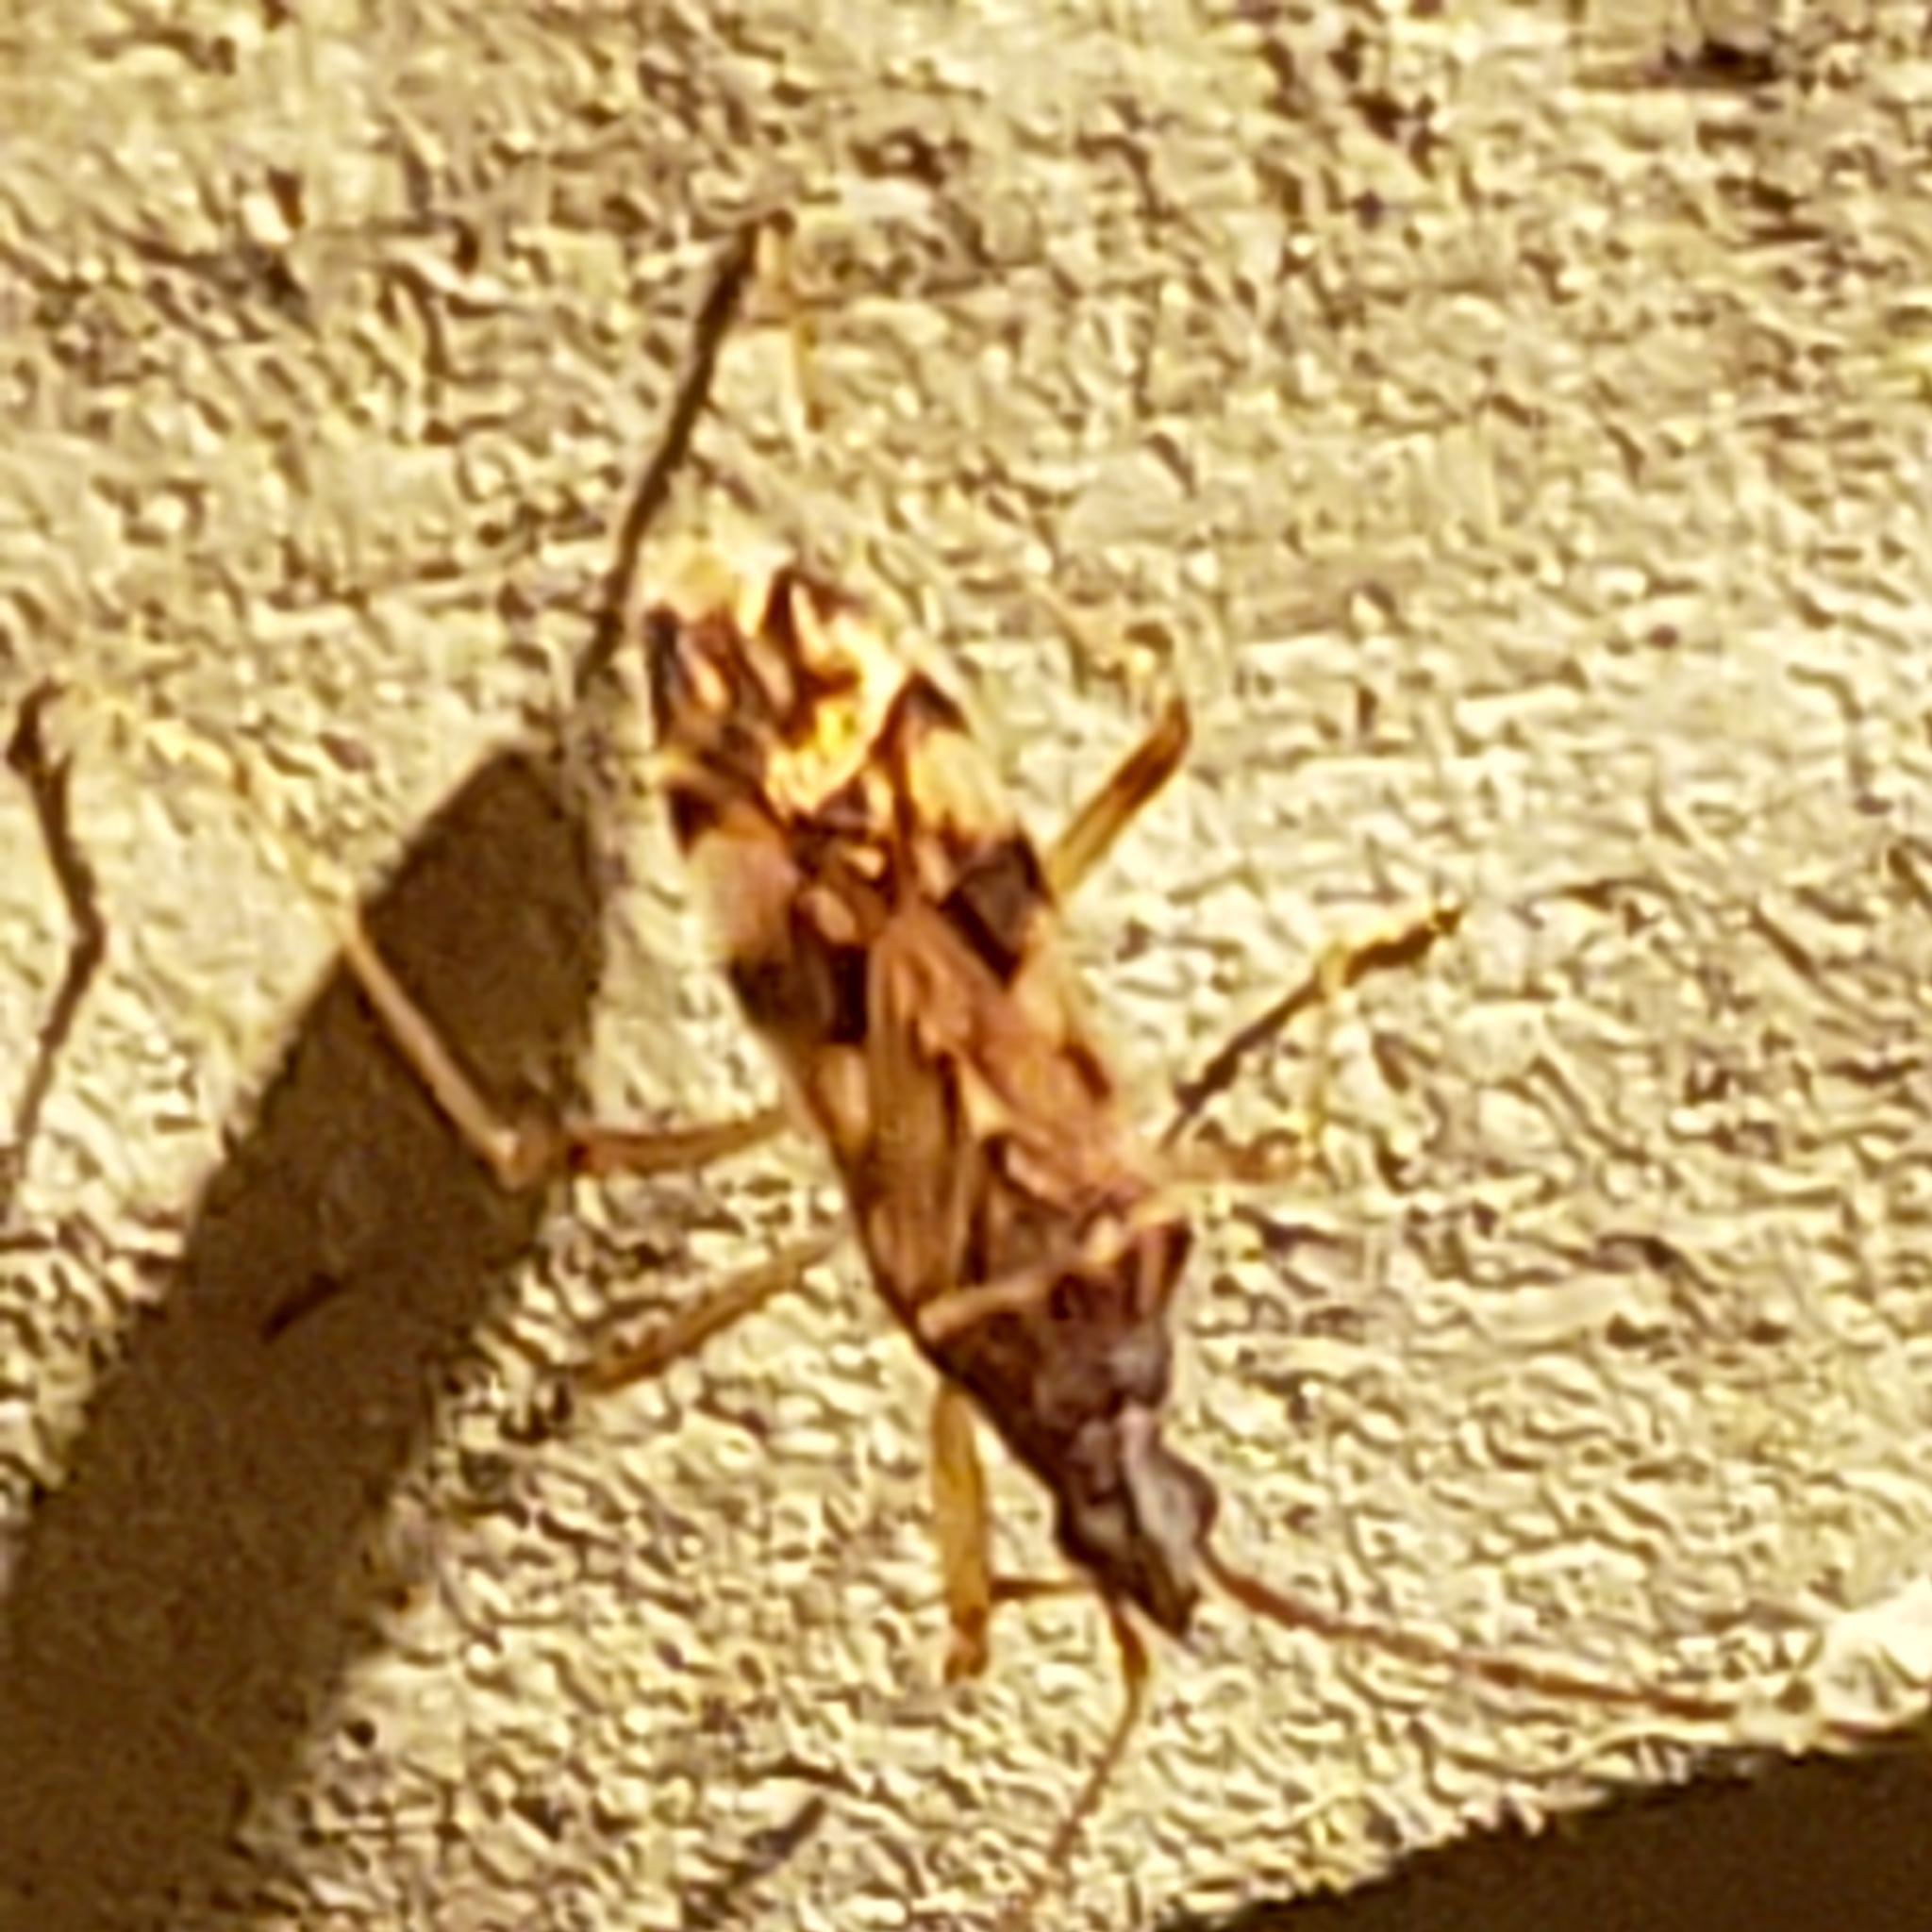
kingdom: Animalia
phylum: Arthropoda
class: Insecta
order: Hemiptera
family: Rhyparochromidae
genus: Ozophora
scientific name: Ozophora picturata
